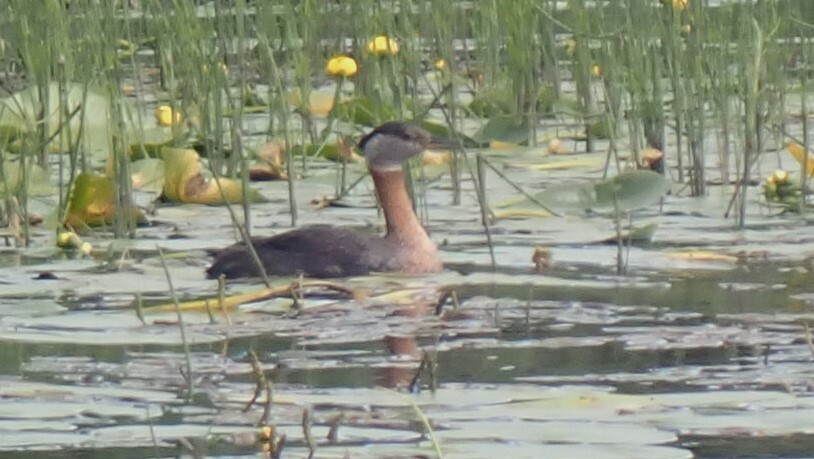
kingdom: Animalia
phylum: Chordata
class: Aves
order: Podicipediformes
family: Podicipedidae
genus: Podiceps
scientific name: Podiceps grisegena
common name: Red-necked grebe
